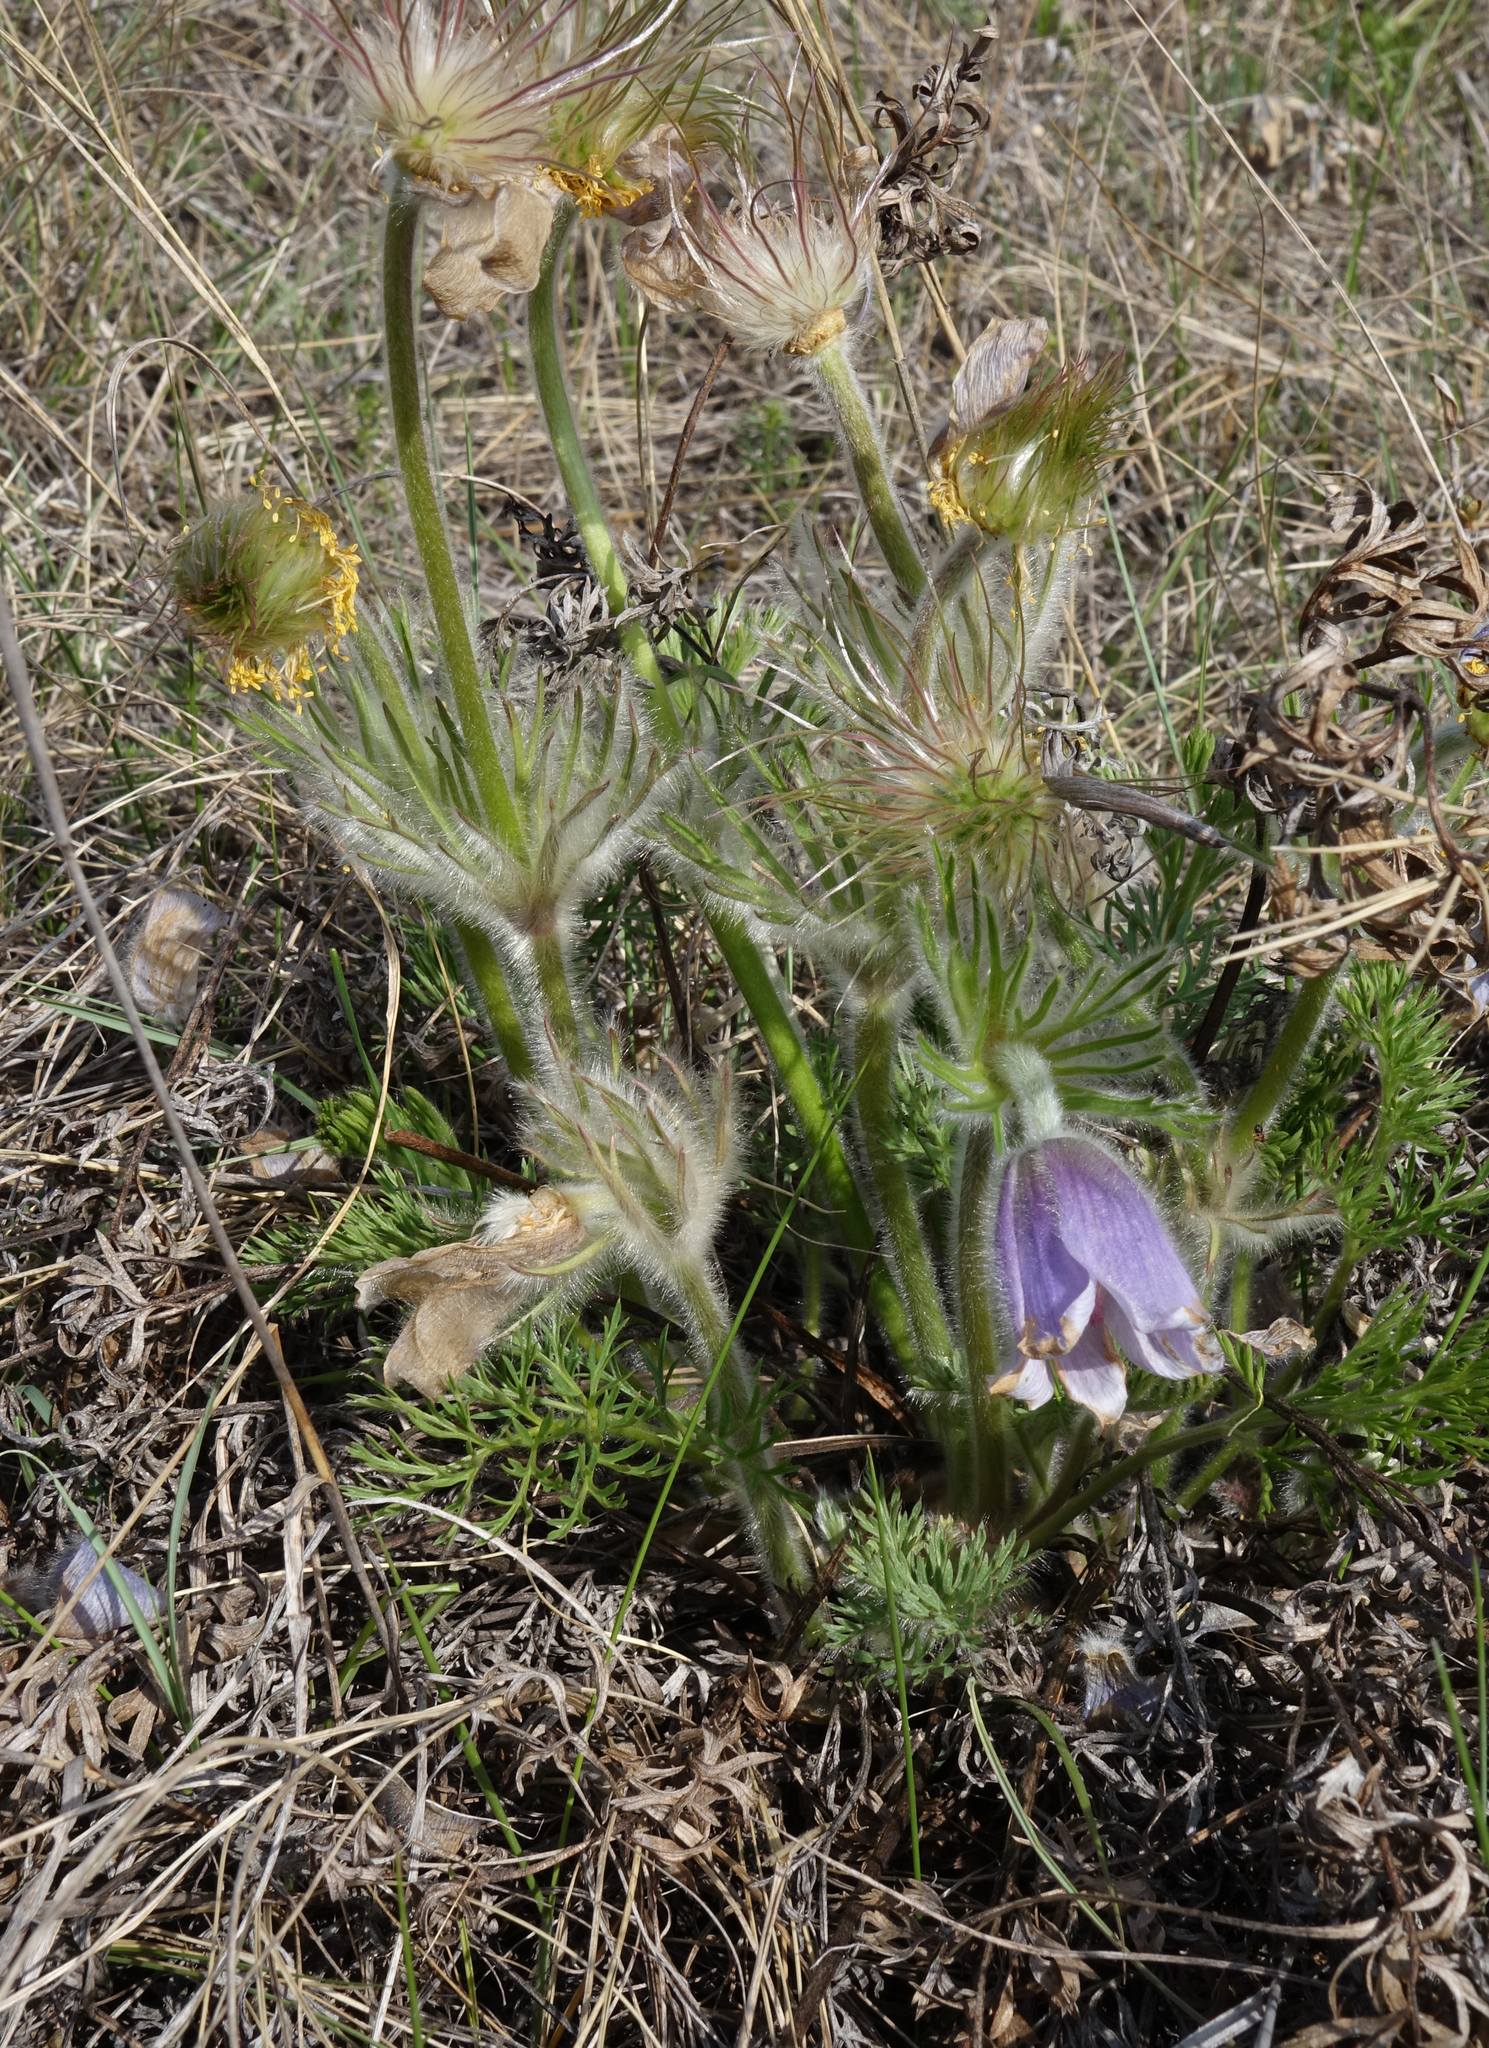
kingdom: Plantae
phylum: Tracheophyta
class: Magnoliopsida
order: Ranunculales
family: Ranunculaceae
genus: Pulsatilla
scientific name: Pulsatilla turczaninovii
